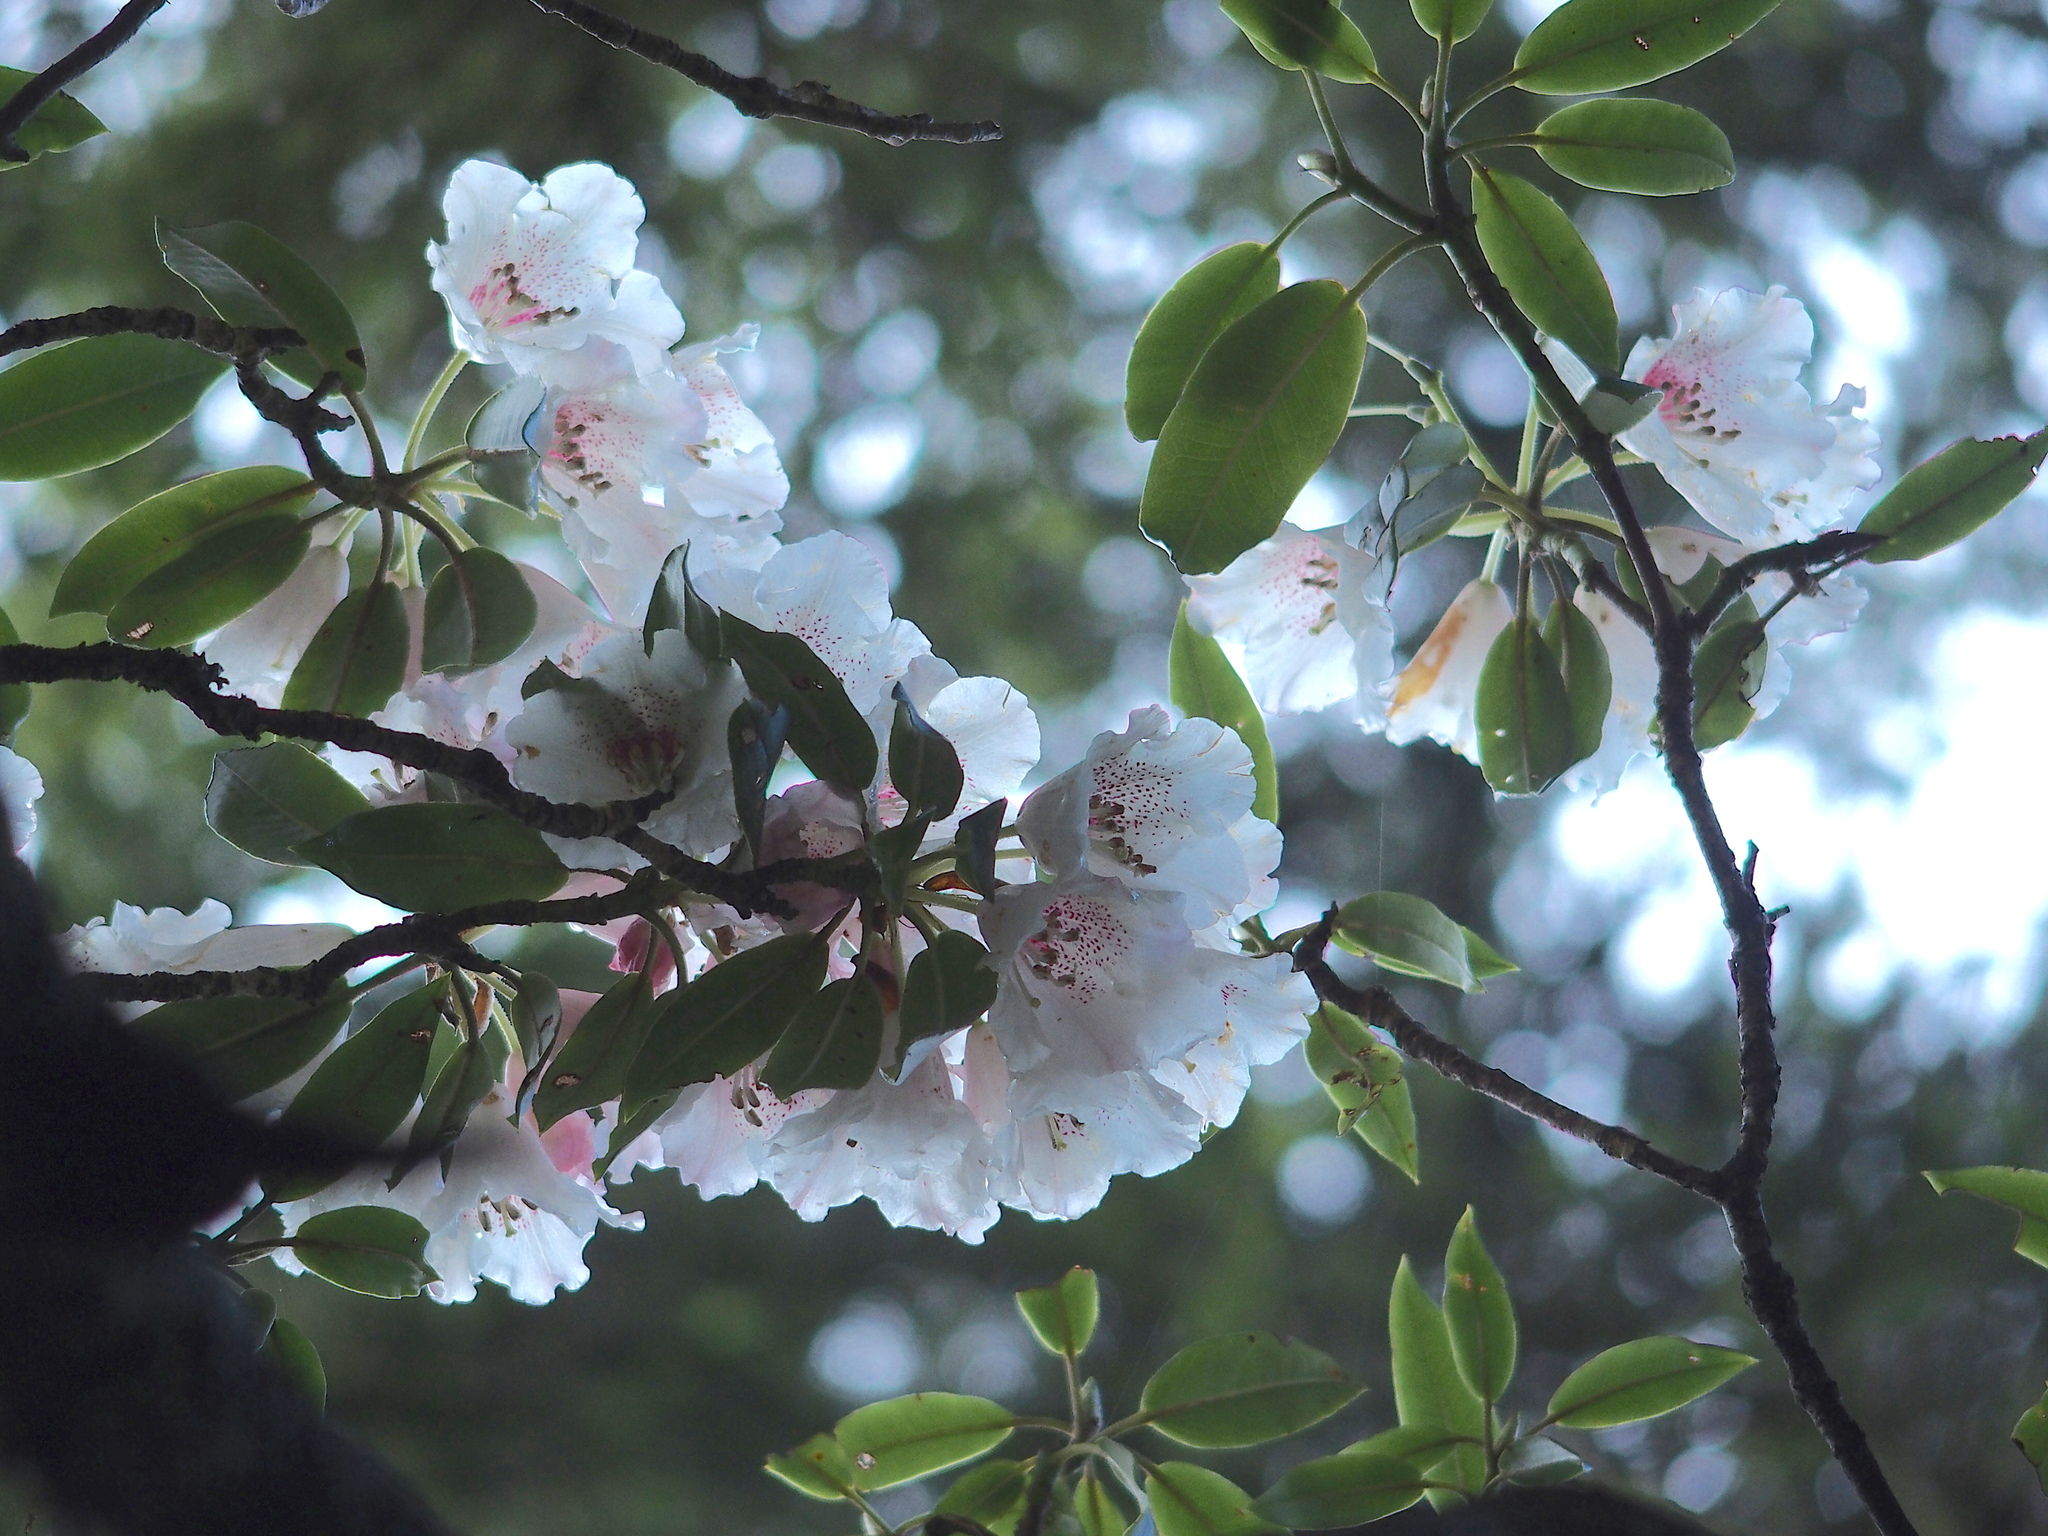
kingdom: Plantae
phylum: Tracheophyta
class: Magnoliopsida
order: Ericales
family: Ericaceae
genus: Rhododendron
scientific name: Rhododendron pseudochrysanthum
